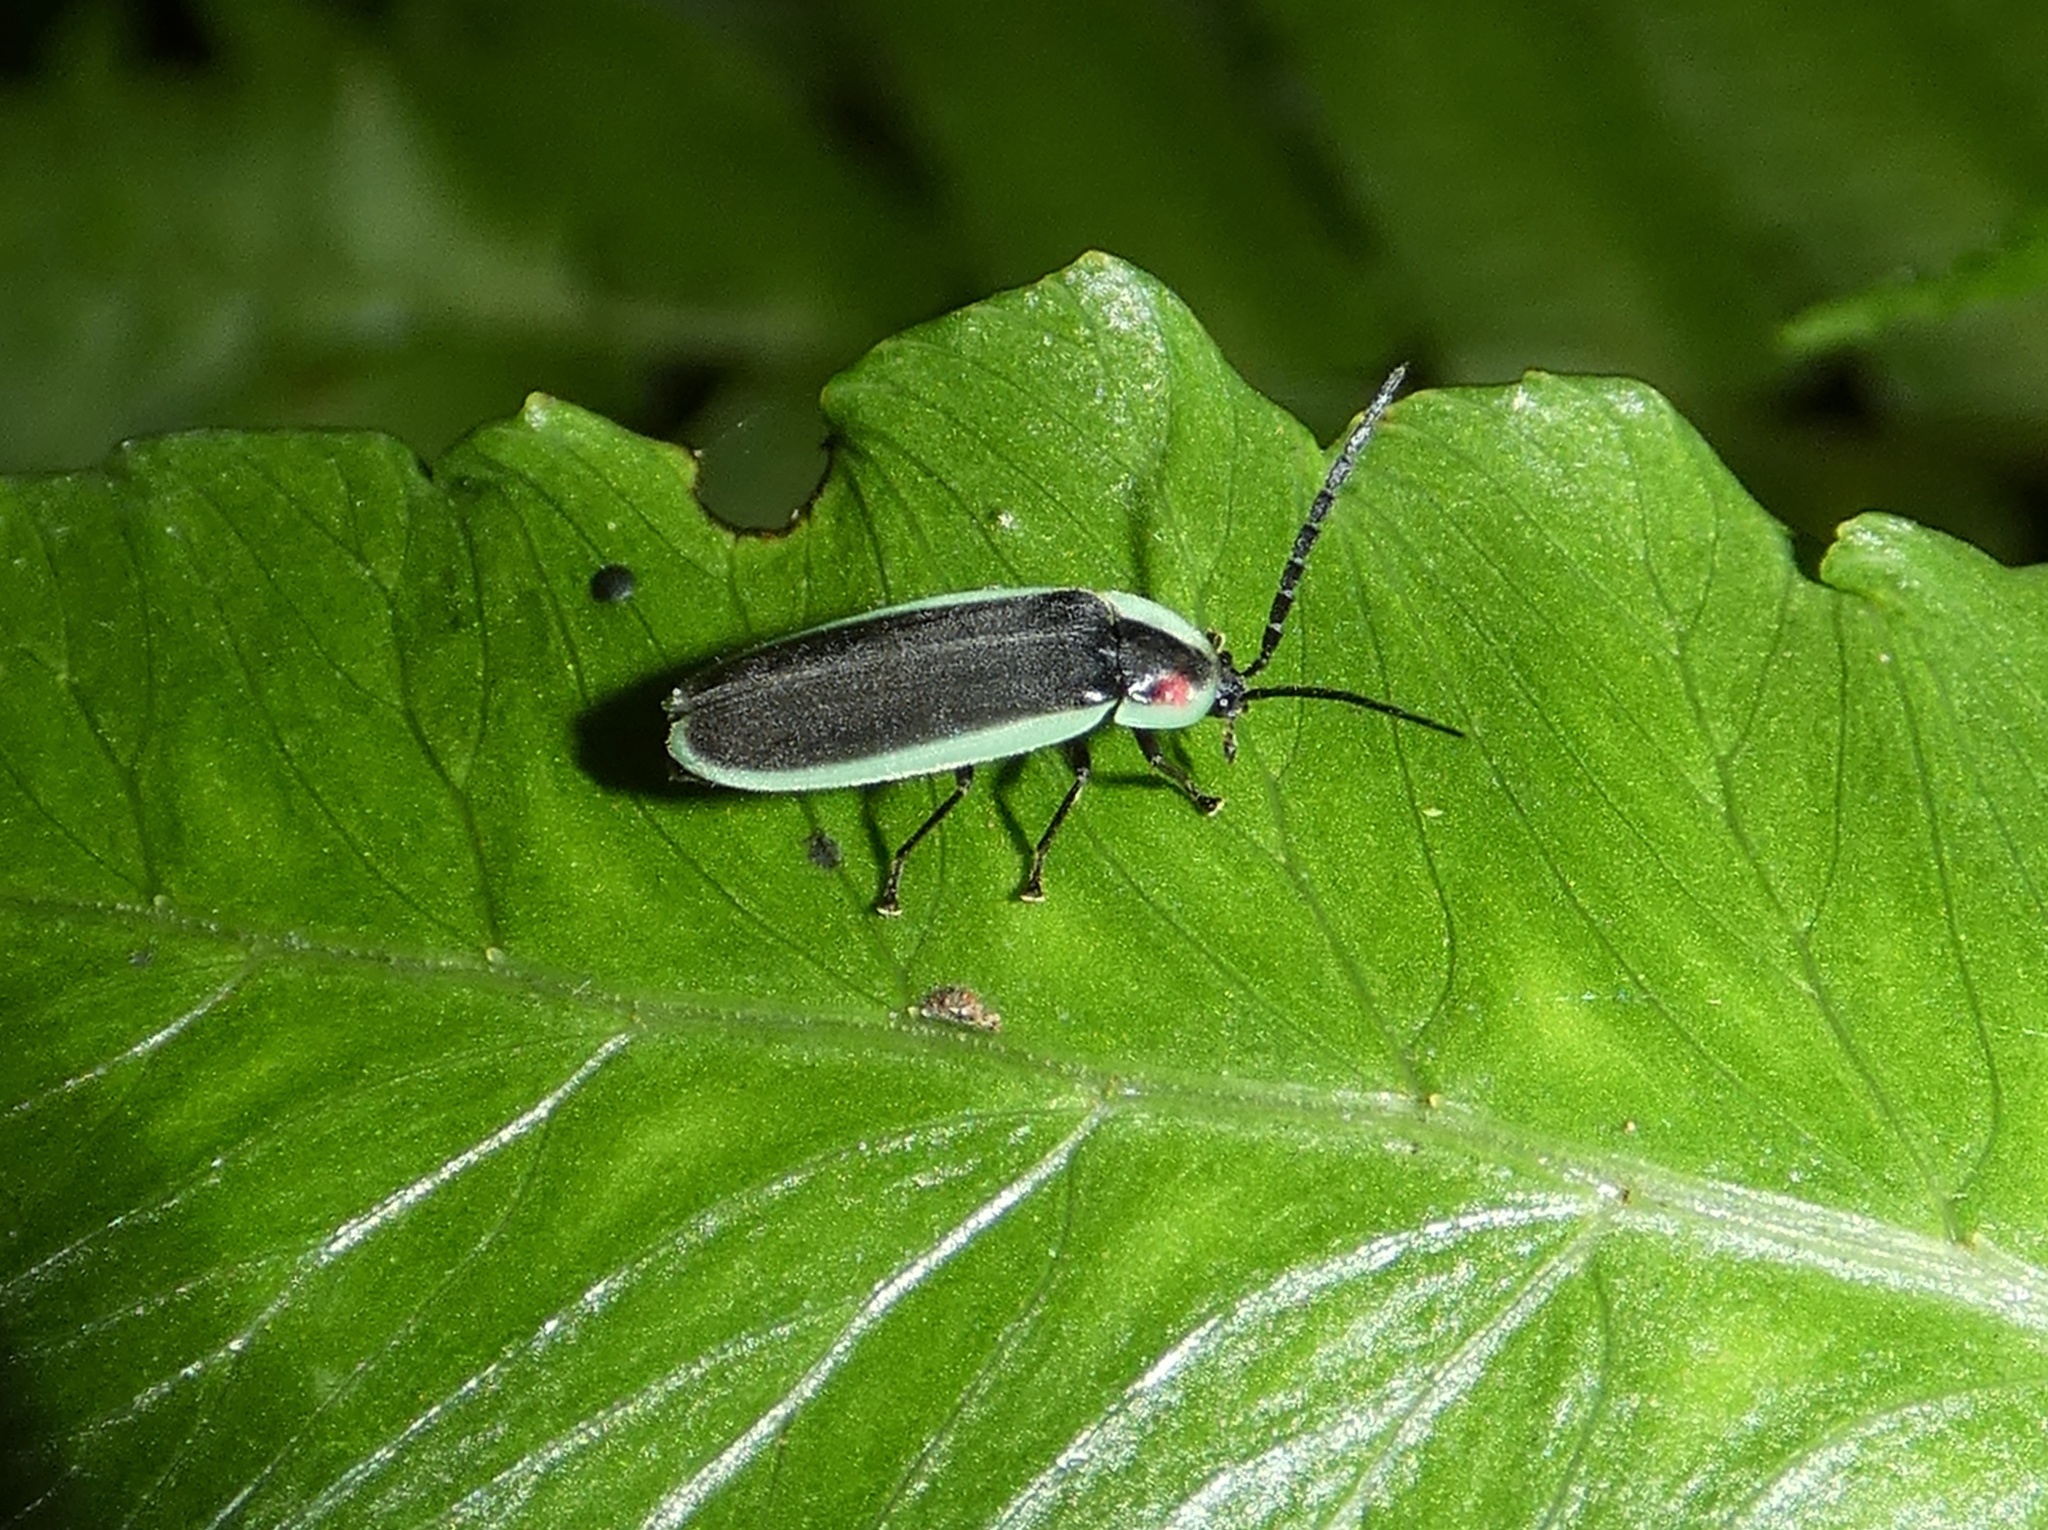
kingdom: Animalia
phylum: Arthropoda
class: Insecta
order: Coleoptera
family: Lampyridae
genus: Lucidota
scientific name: Lucidota amabilis
